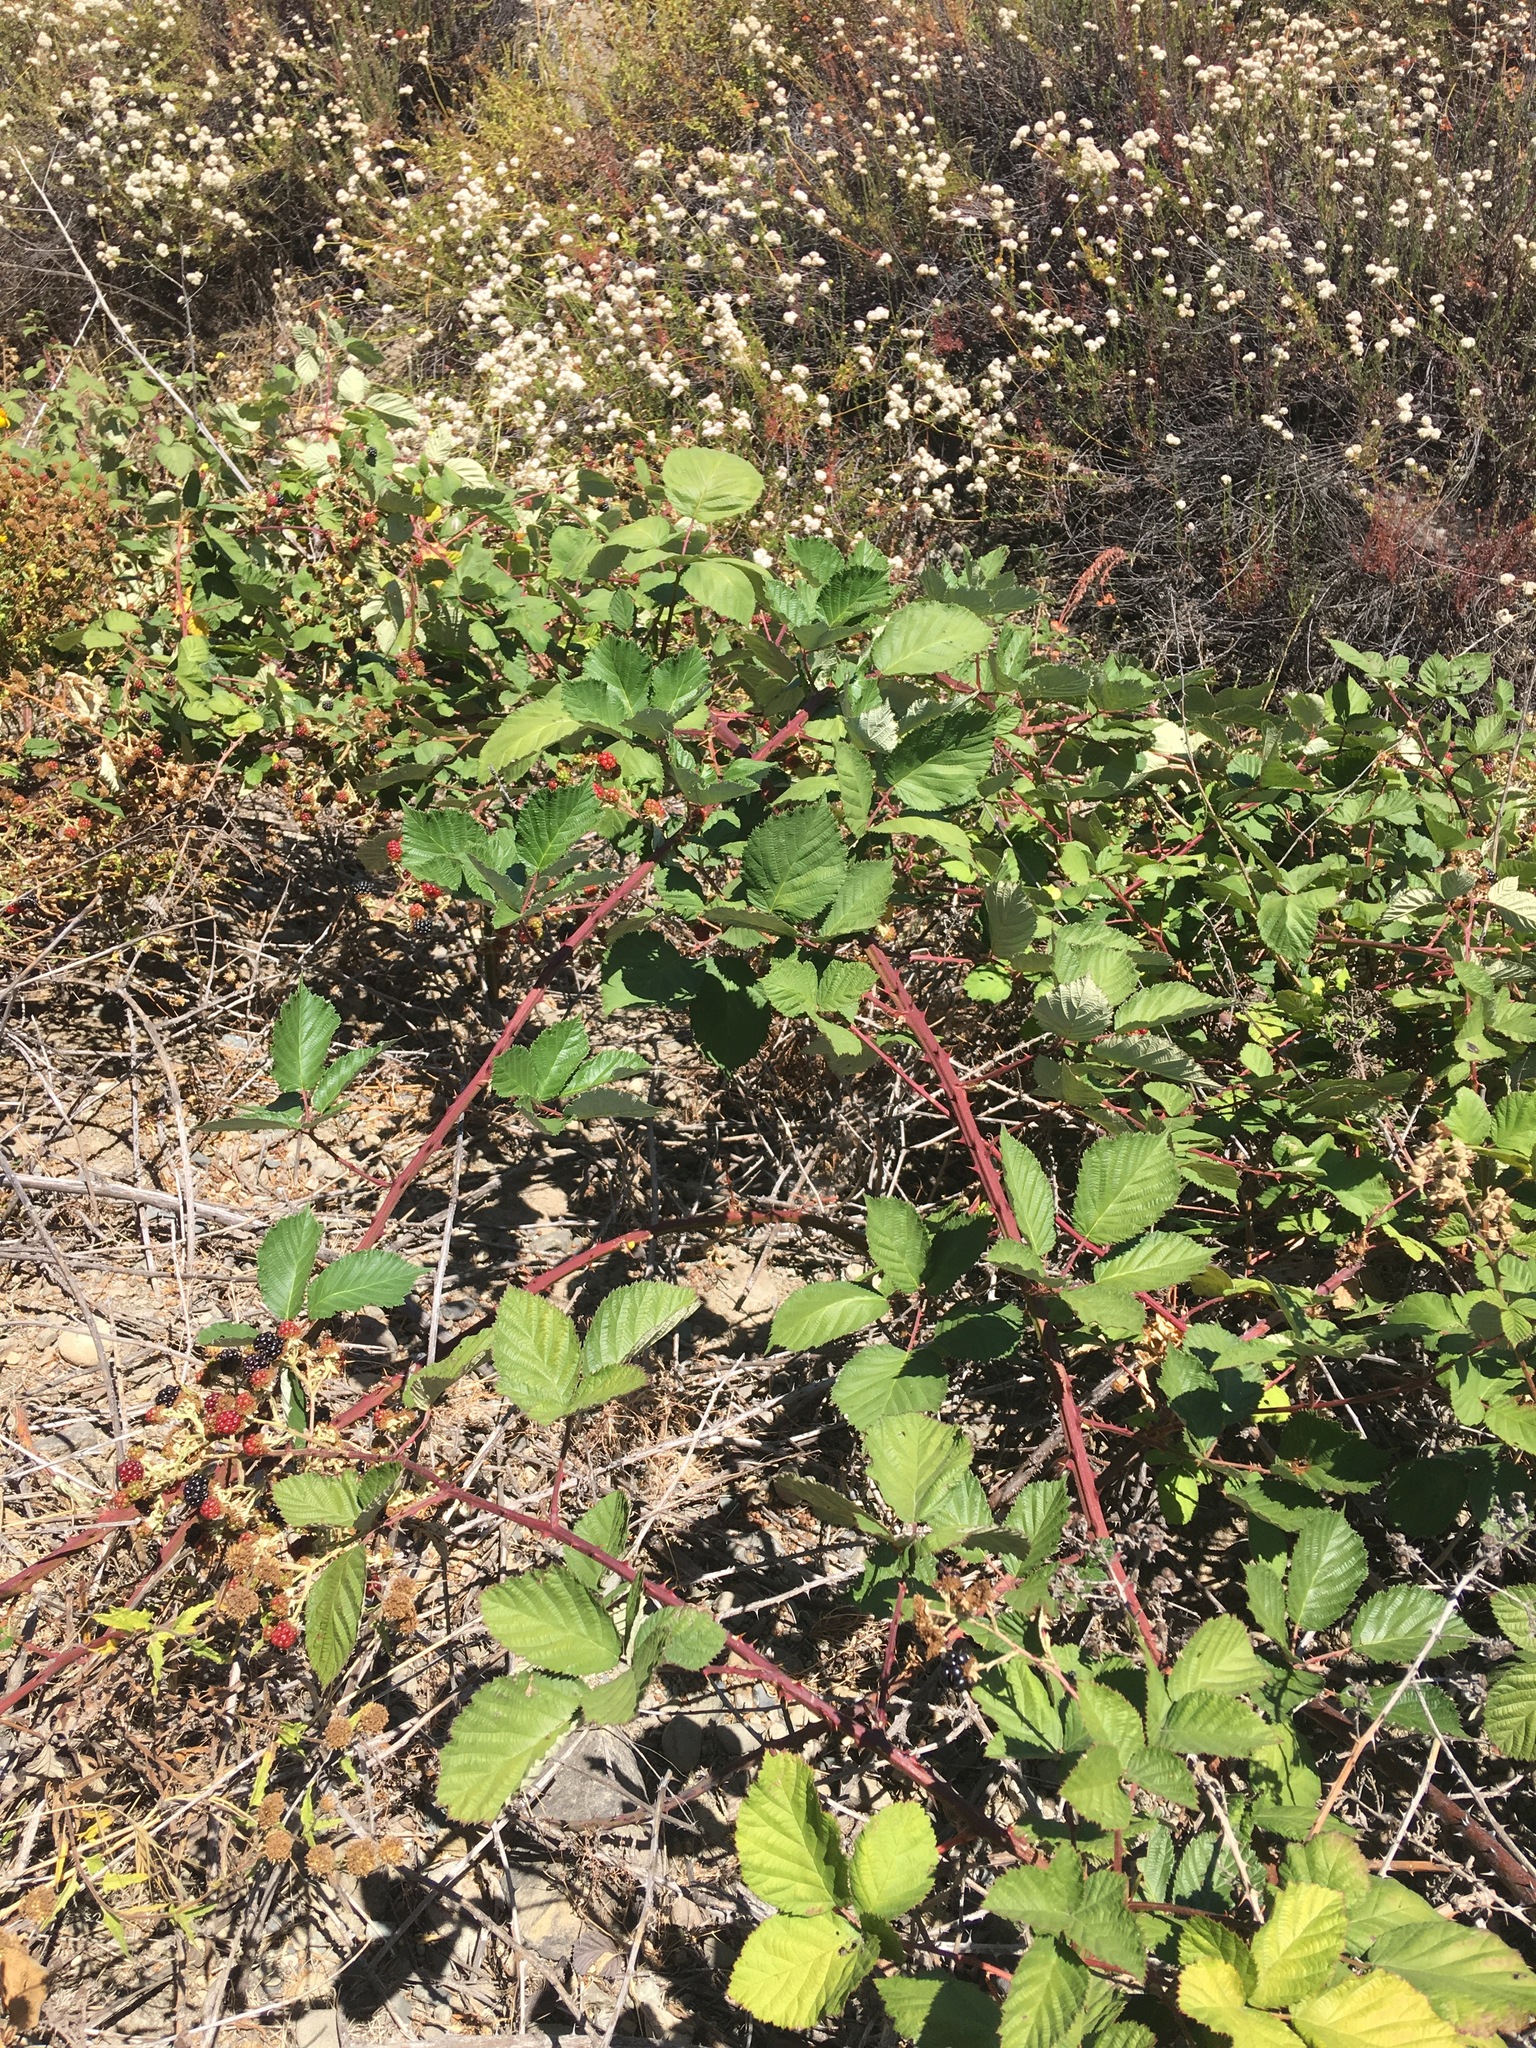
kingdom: Plantae
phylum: Tracheophyta
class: Magnoliopsida
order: Rosales
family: Rosaceae
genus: Rubus
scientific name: Rubus armeniacus
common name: Himalayan blackberry
